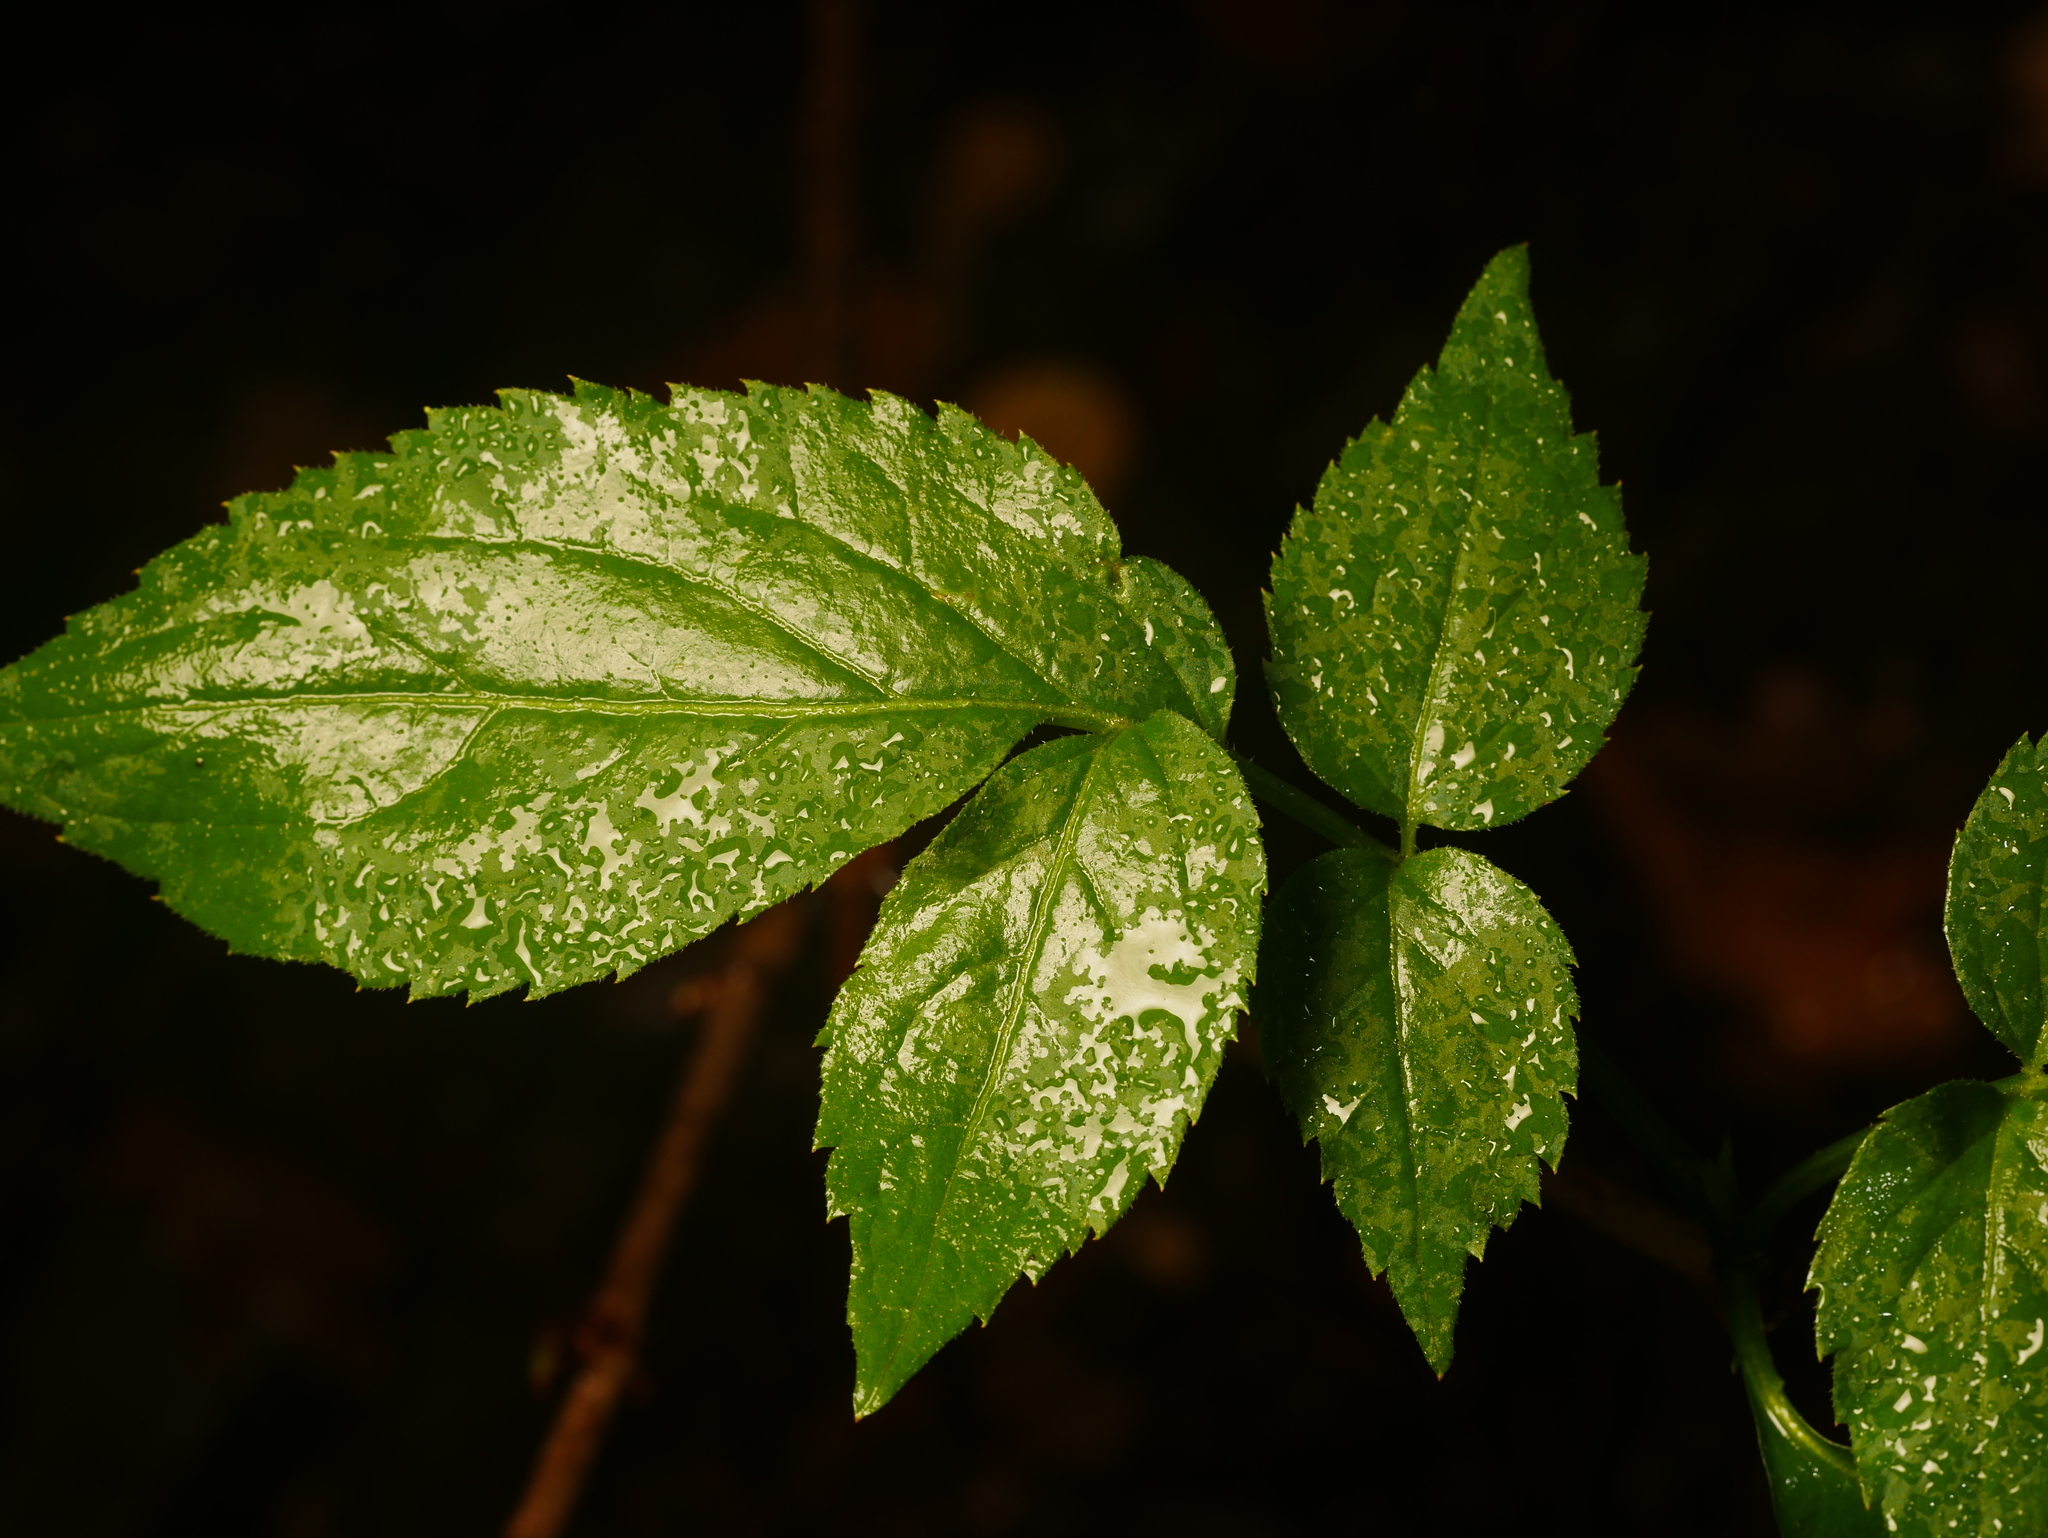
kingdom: Plantae
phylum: Tracheophyta
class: Magnoliopsida
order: Dipsacales
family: Viburnaceae
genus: Sambucus
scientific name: Sambucus nigra
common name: Elder
